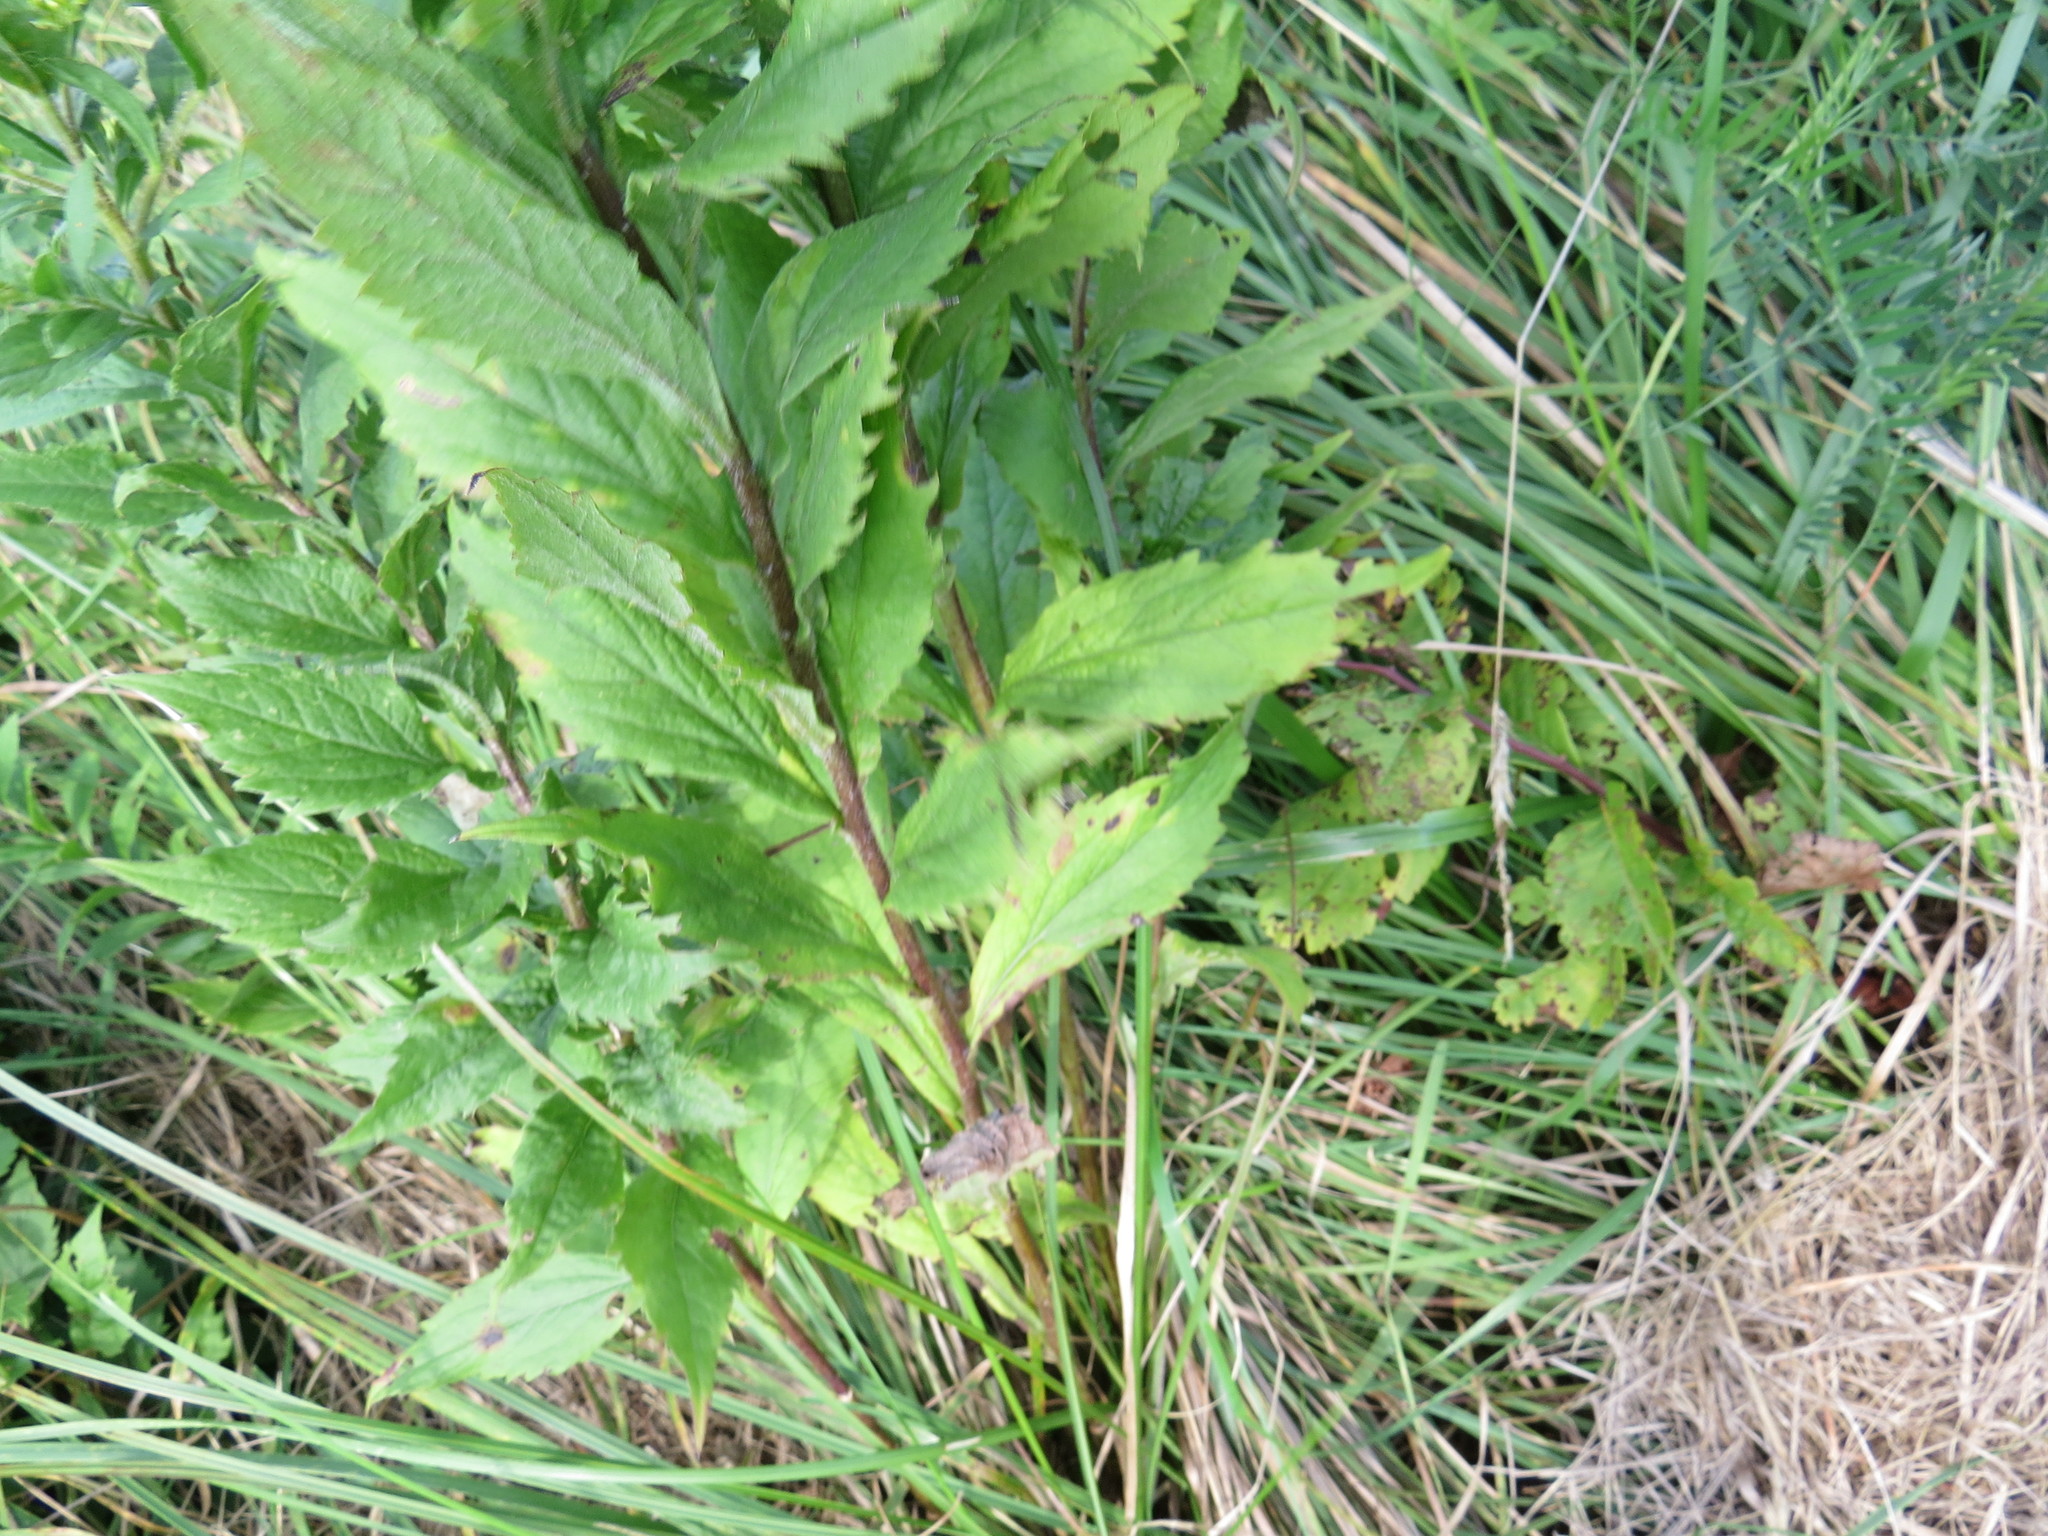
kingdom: Plantae
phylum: Tracheophyta
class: Magnoliopsida
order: Asterales
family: Asteraceae
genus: Solidago
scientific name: Solidago rugosa
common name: Rough-stemmed goldenrod
